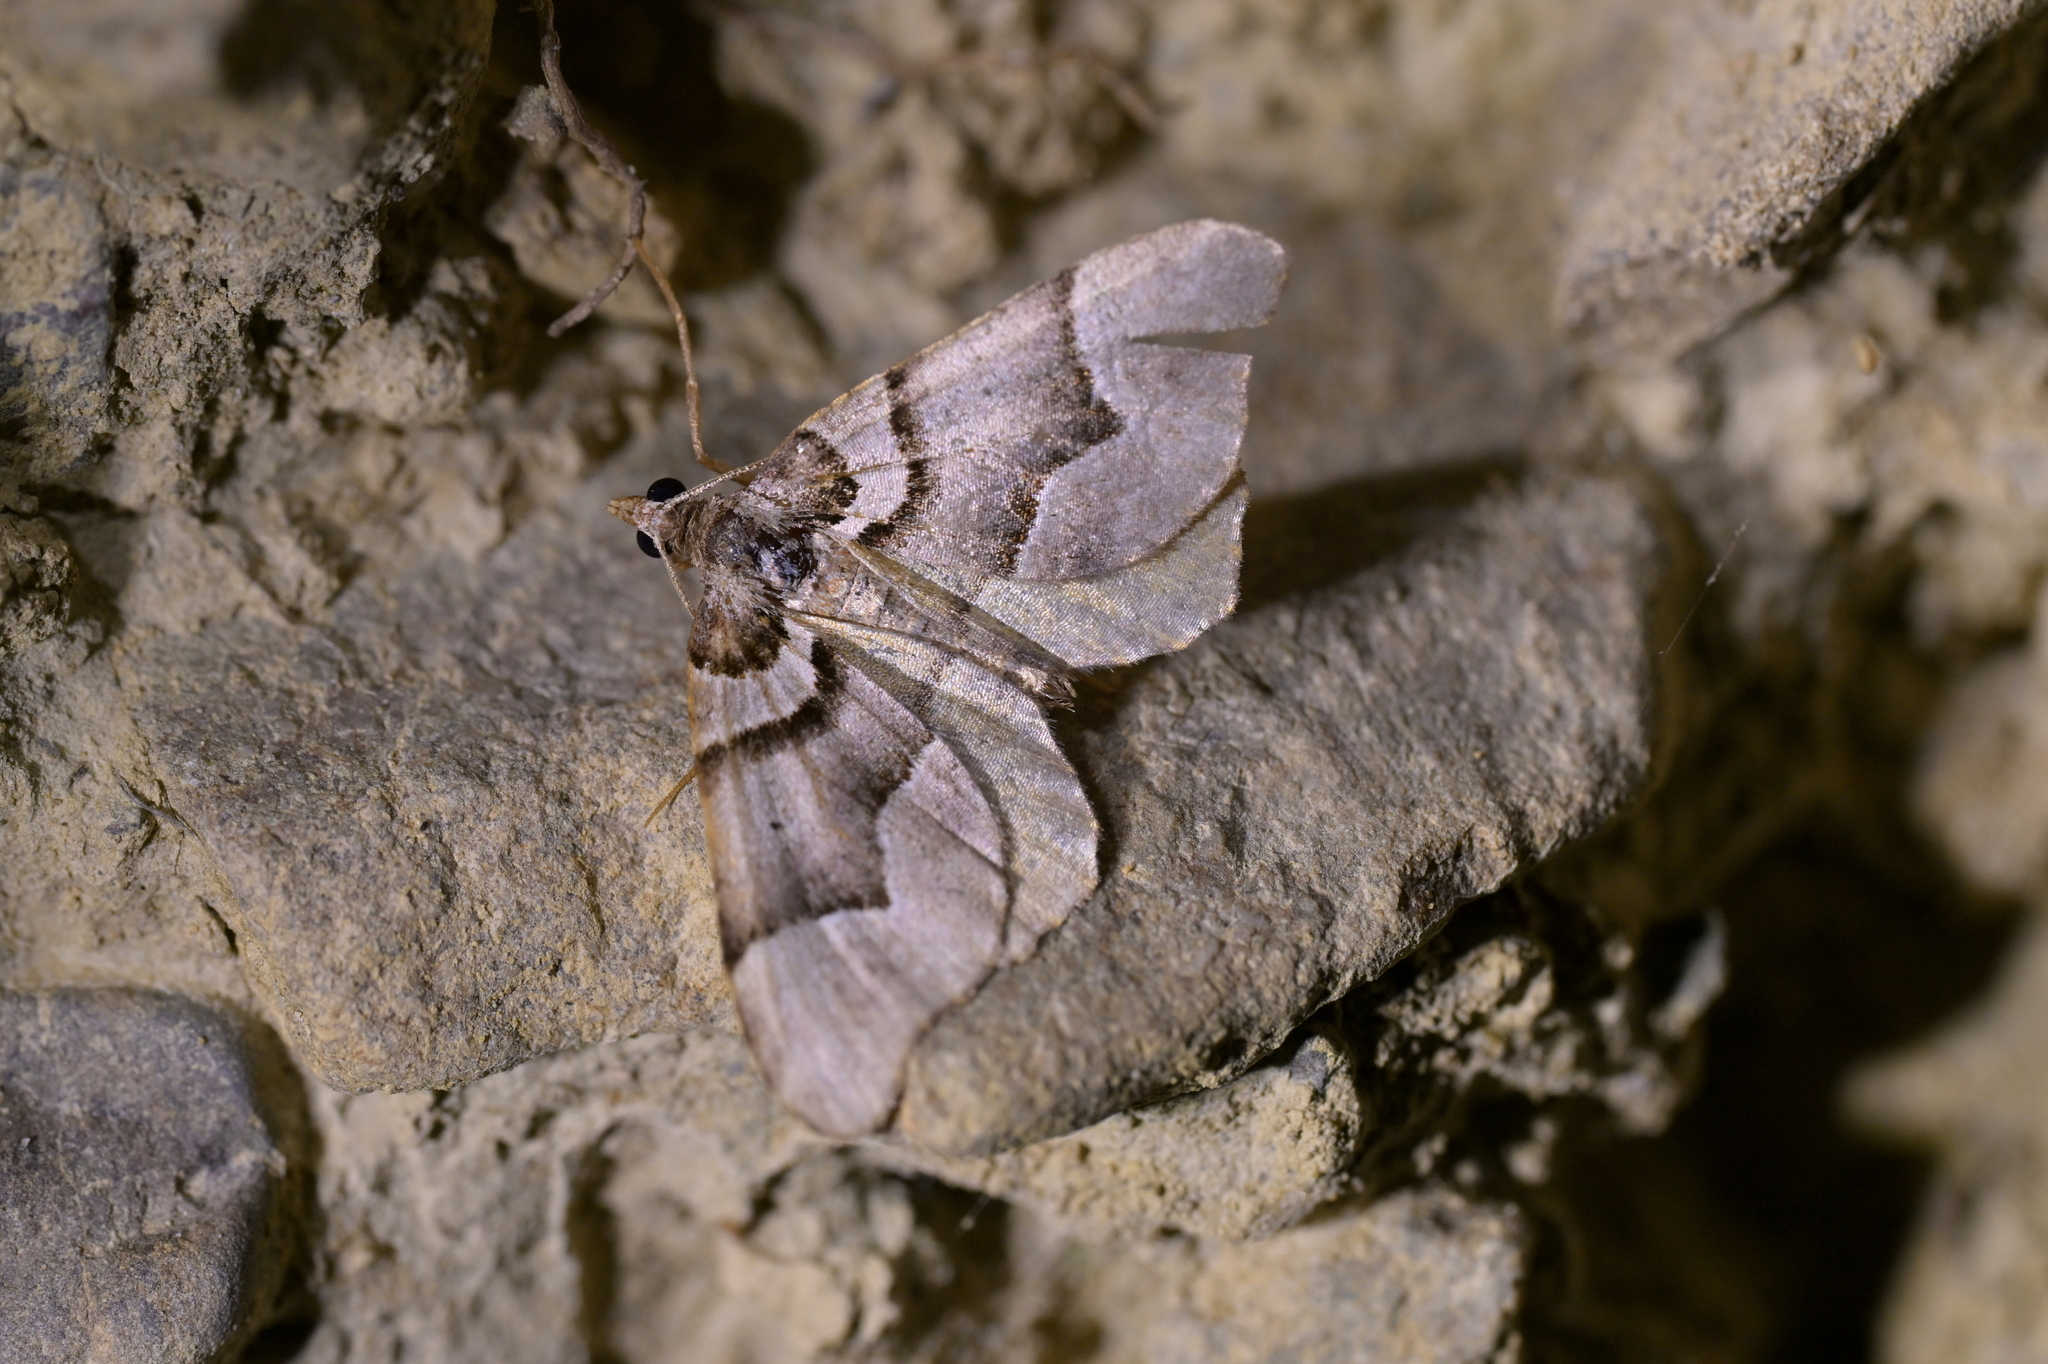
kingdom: Animalia
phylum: Arthropoda
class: Insecta
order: Lepidoptera
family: Geometridae
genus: Helastia
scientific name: Helastia siris
